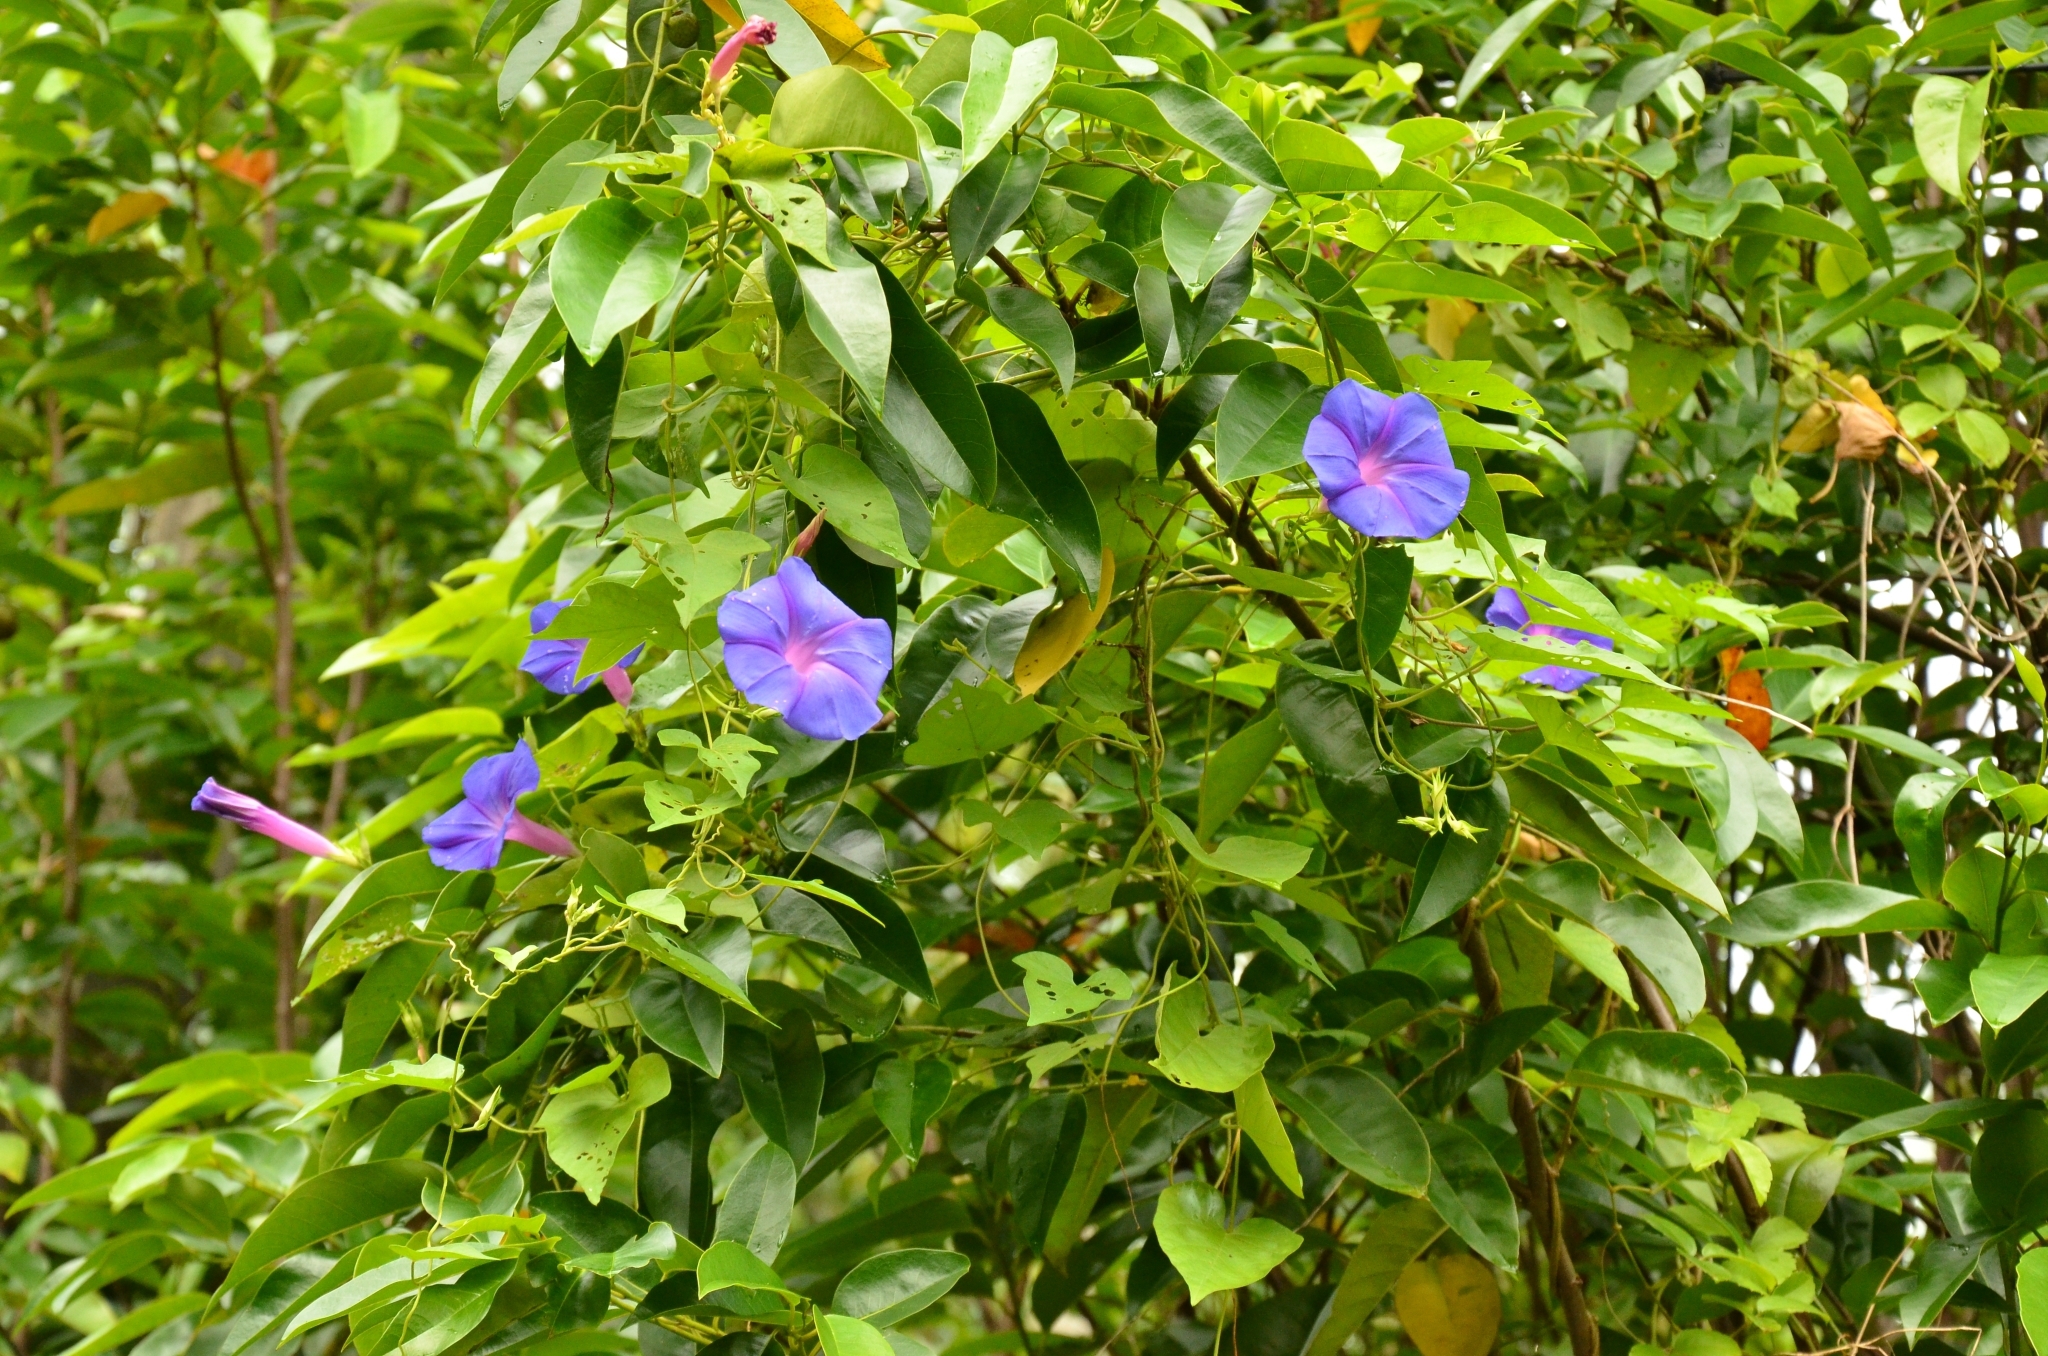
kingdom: Plantae
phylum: Tracheophyta
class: Magnoliopsida
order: Solanales
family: Convolvulaceae
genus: Ipomoea
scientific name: Ipomoea indica
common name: Blue dawnflower
